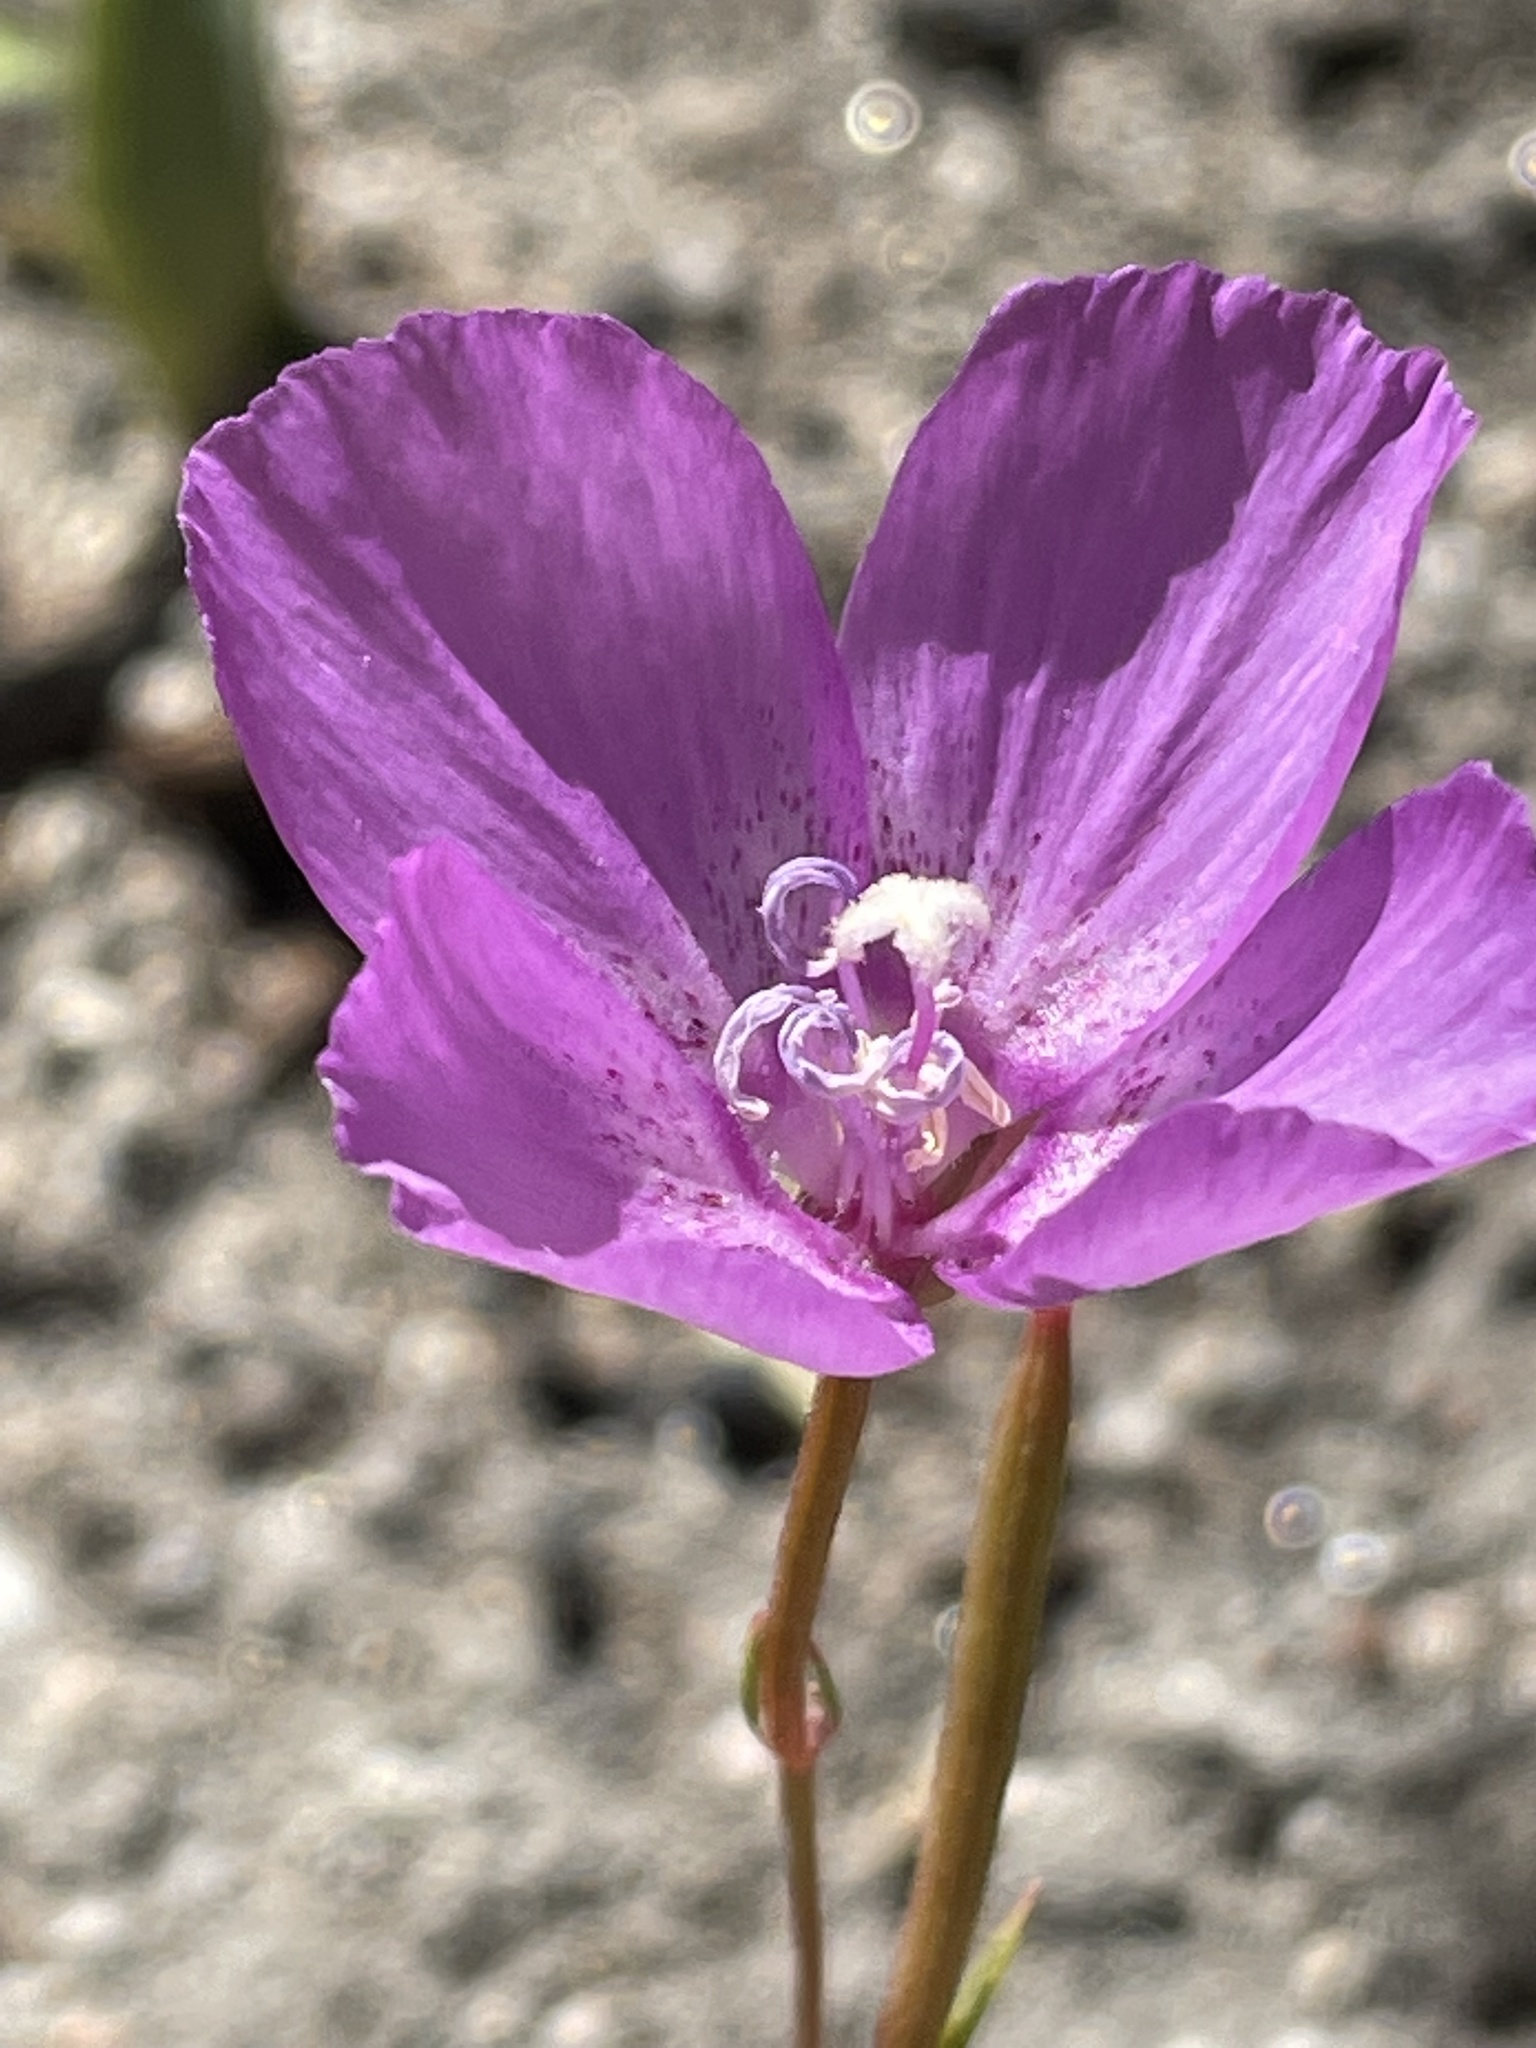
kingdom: Plantae
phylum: Tracheophyta
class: Magnoliopsida
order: Myrtales
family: Onagraceae
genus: Clarkia
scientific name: Clarkia lewisii
